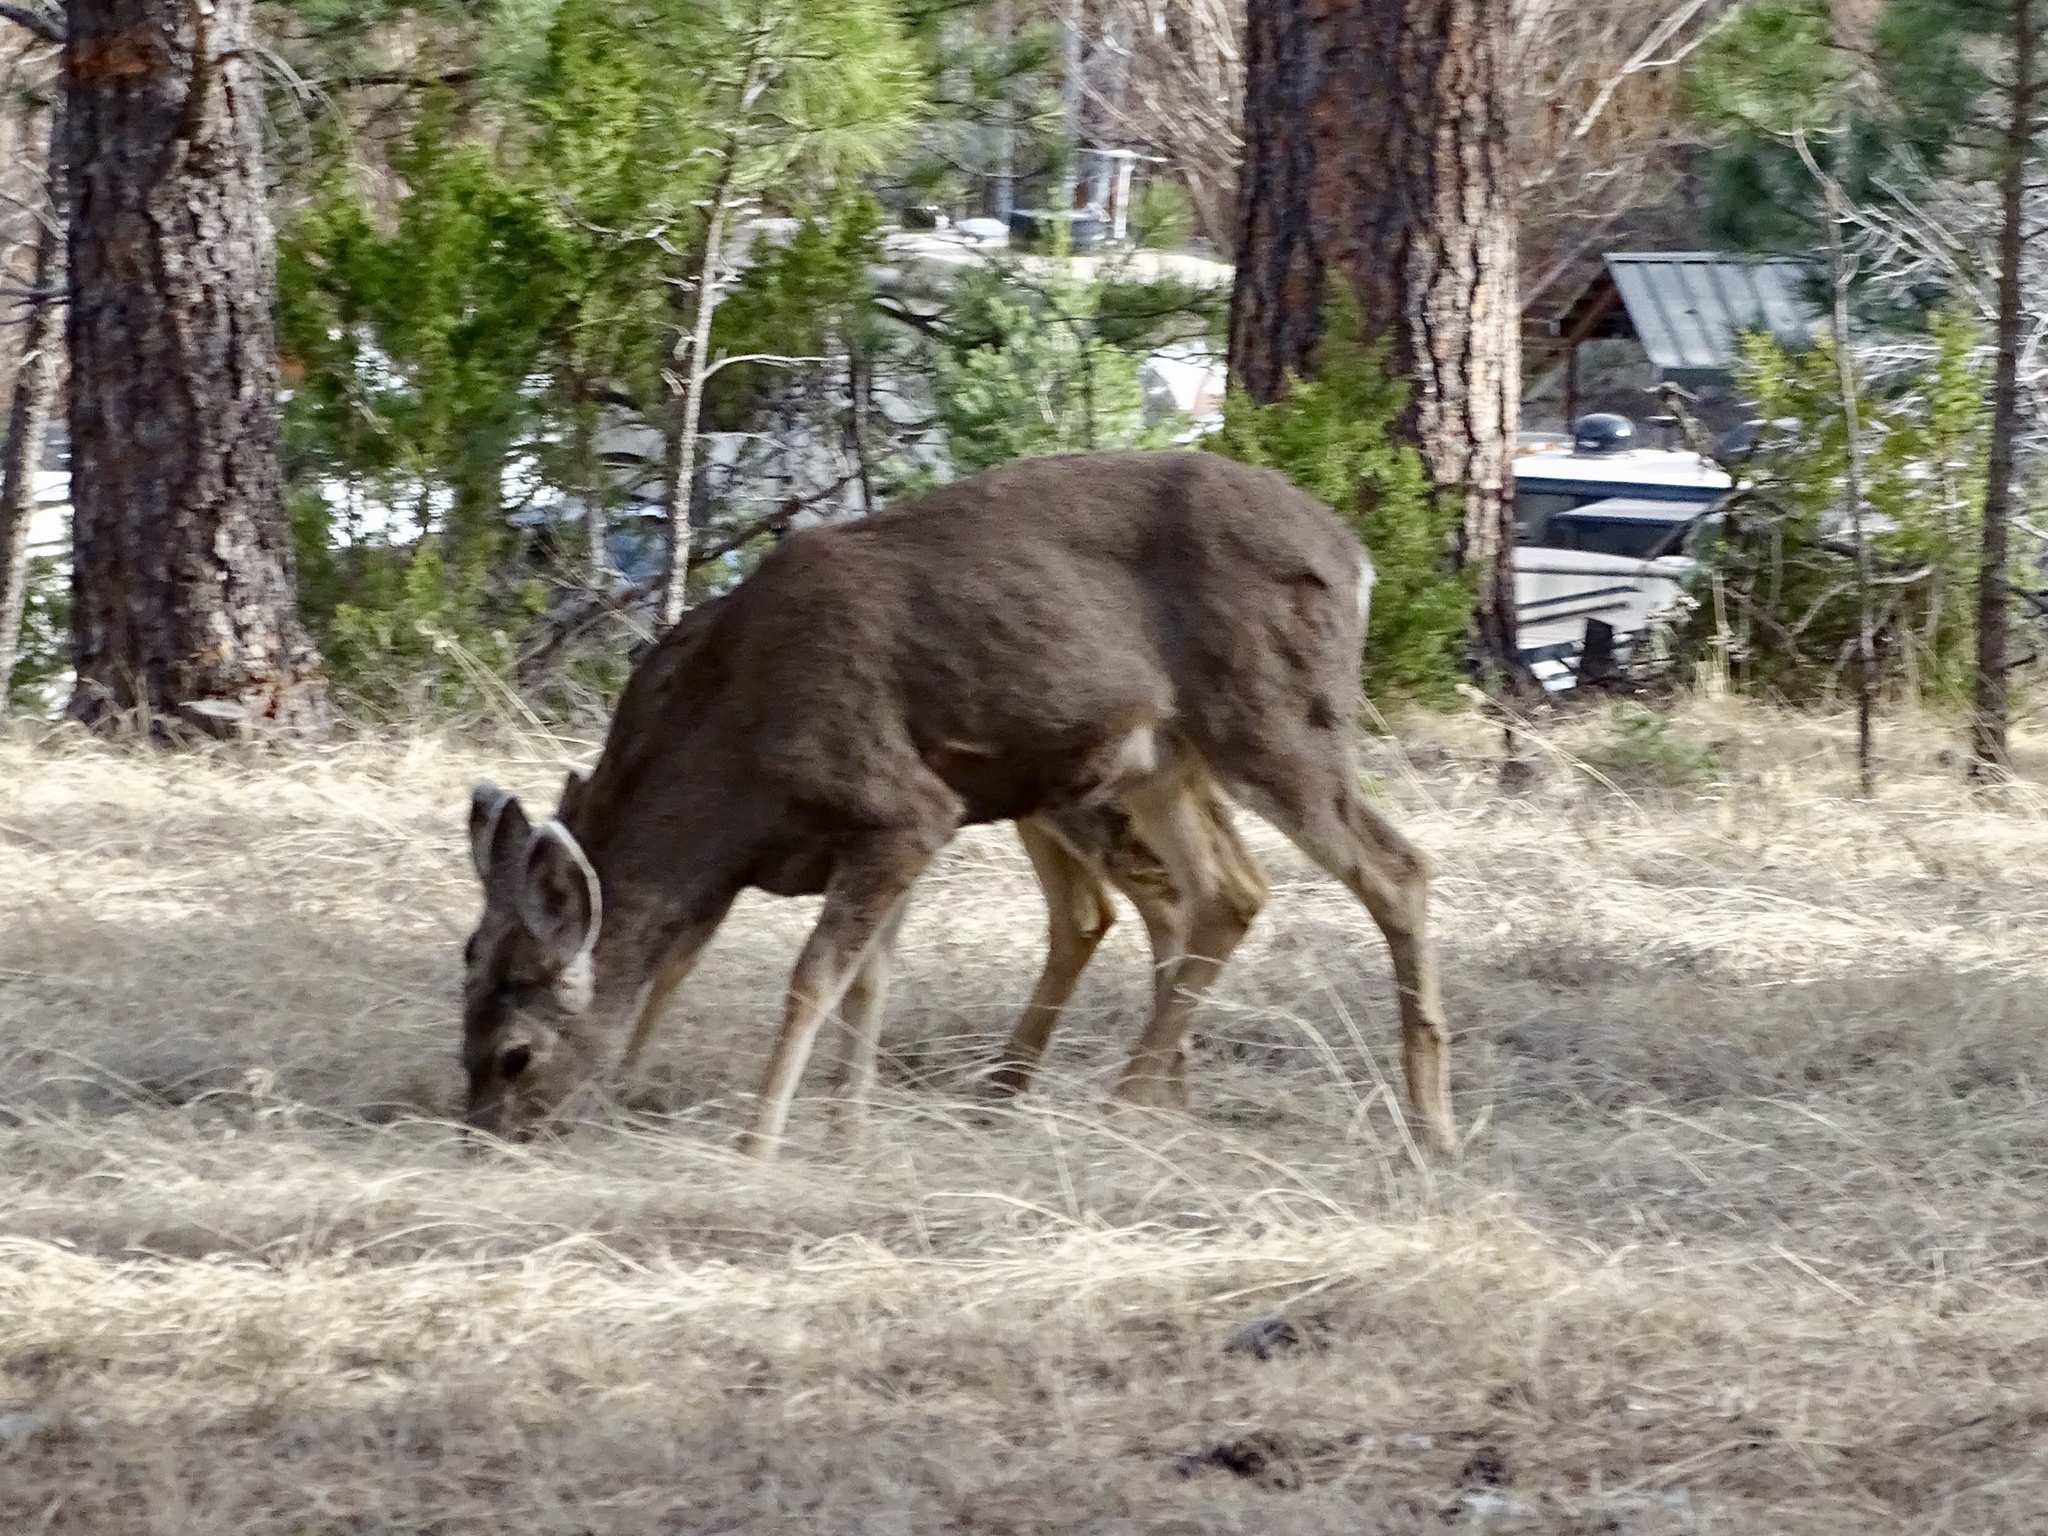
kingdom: Animalia
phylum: Chordata
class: Mammalia
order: Artiodactyla
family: Cervidae
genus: Odocoileus
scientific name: Odocoileus hemionus
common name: Mule deer
